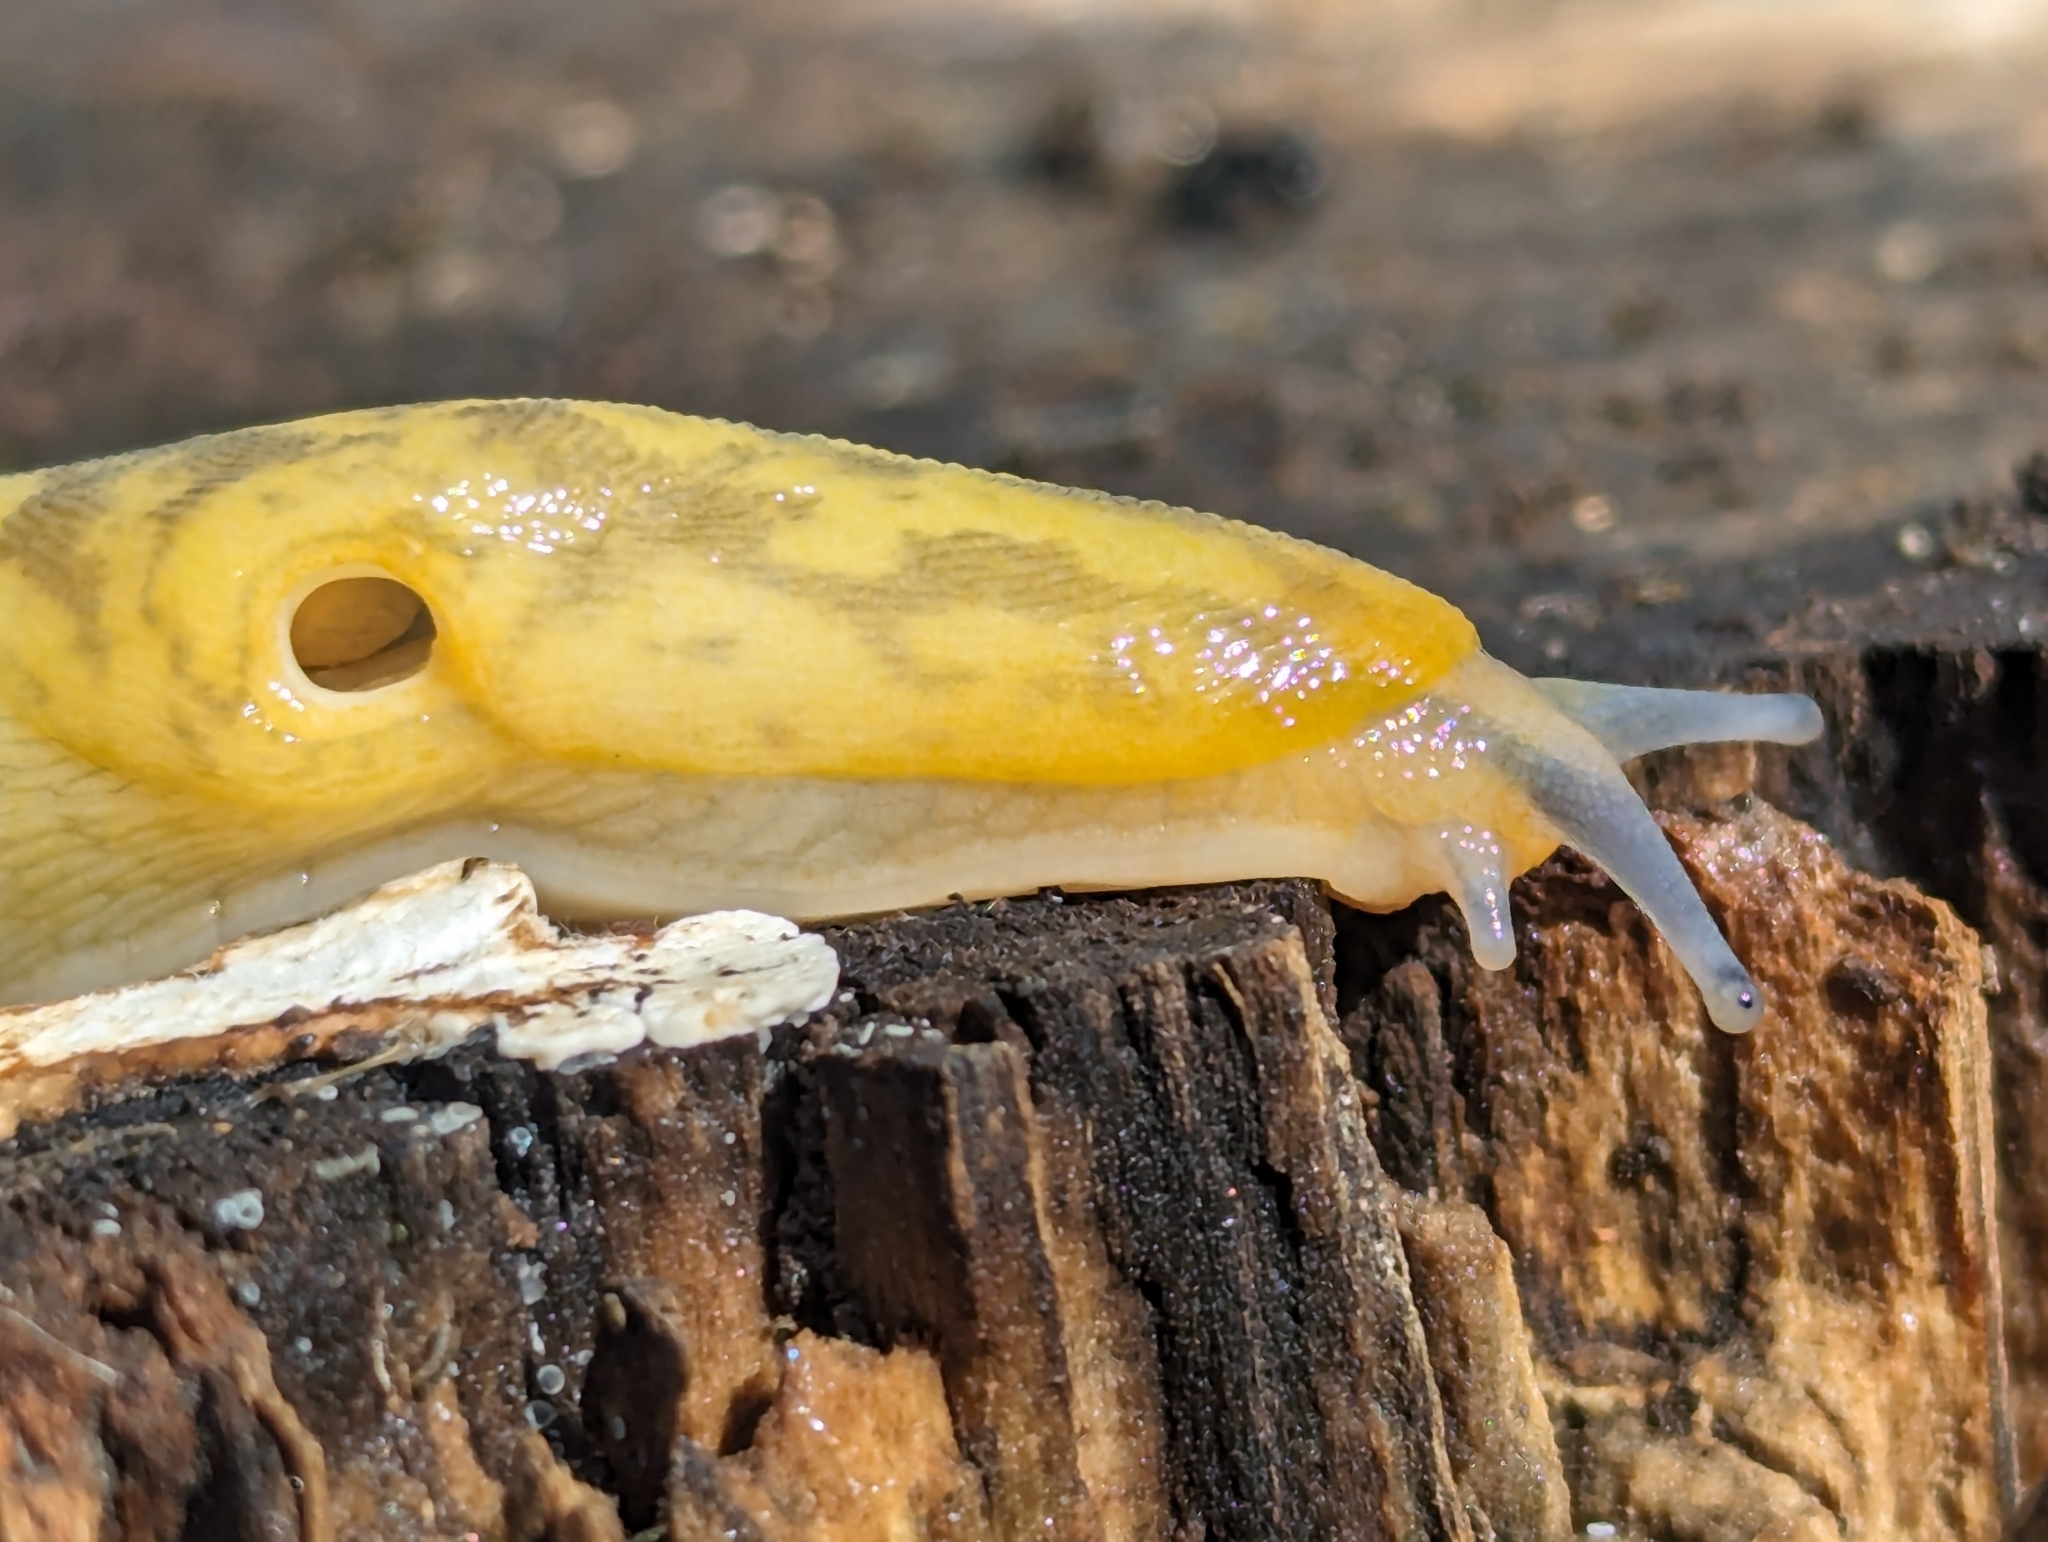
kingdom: Animalia
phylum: Mollusca
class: Gastropoda
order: Stylommatophora
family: Limacidae
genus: Limacus
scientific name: Limacus maculatus
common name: Irish yellow slug
